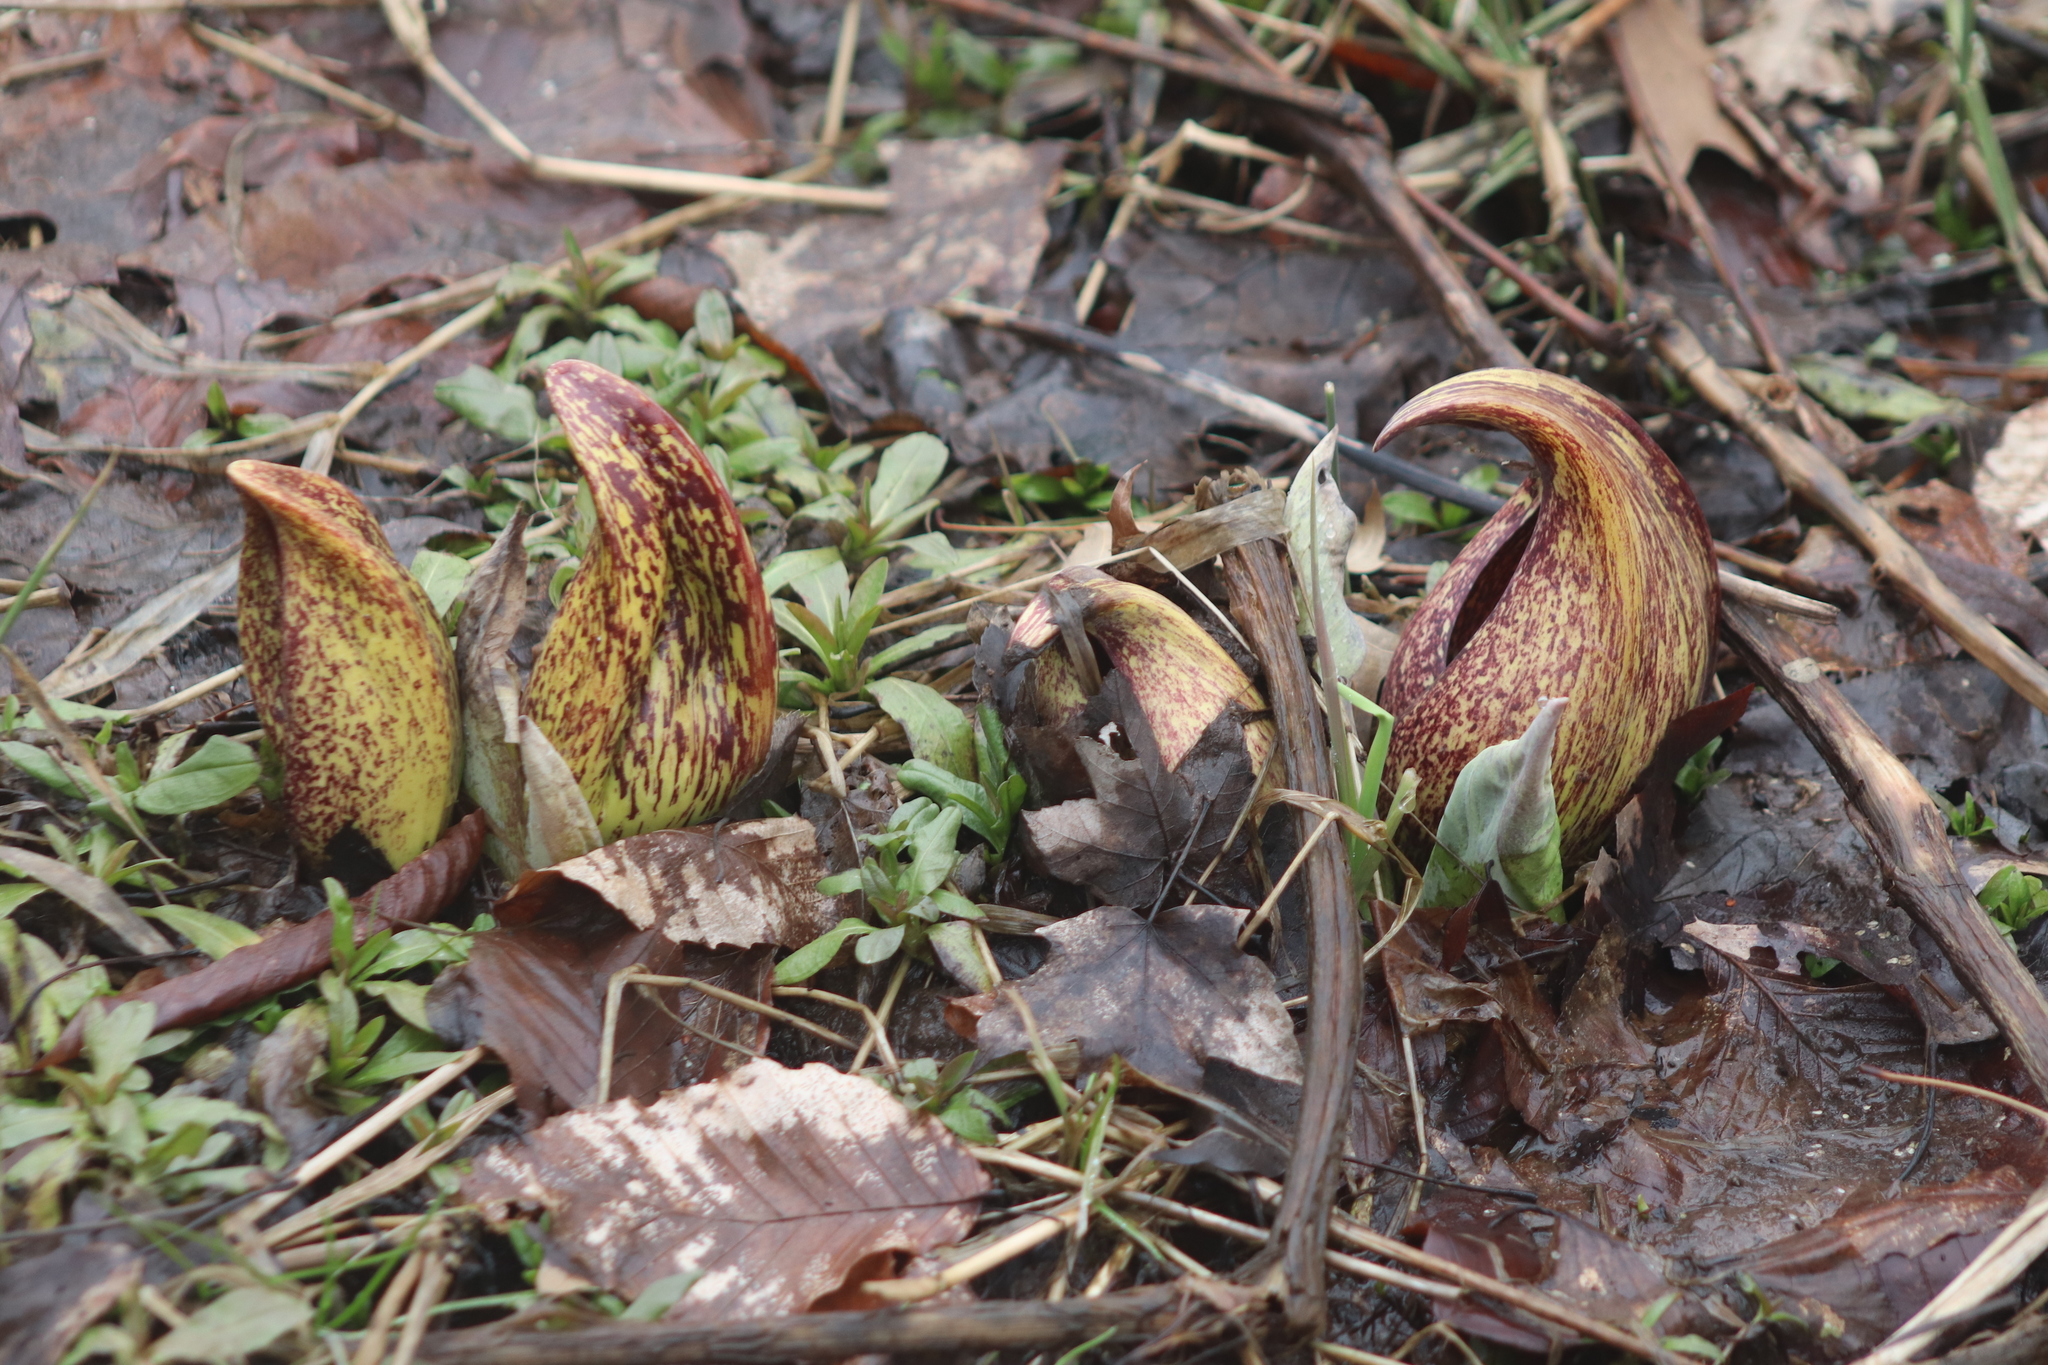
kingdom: Plantae
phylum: Tracheophyta
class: Liliopsida
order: Alismatales
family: Araceae
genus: Symplocarpus
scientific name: Symplocarpus foetidus
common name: Eastern skunk cabbage
